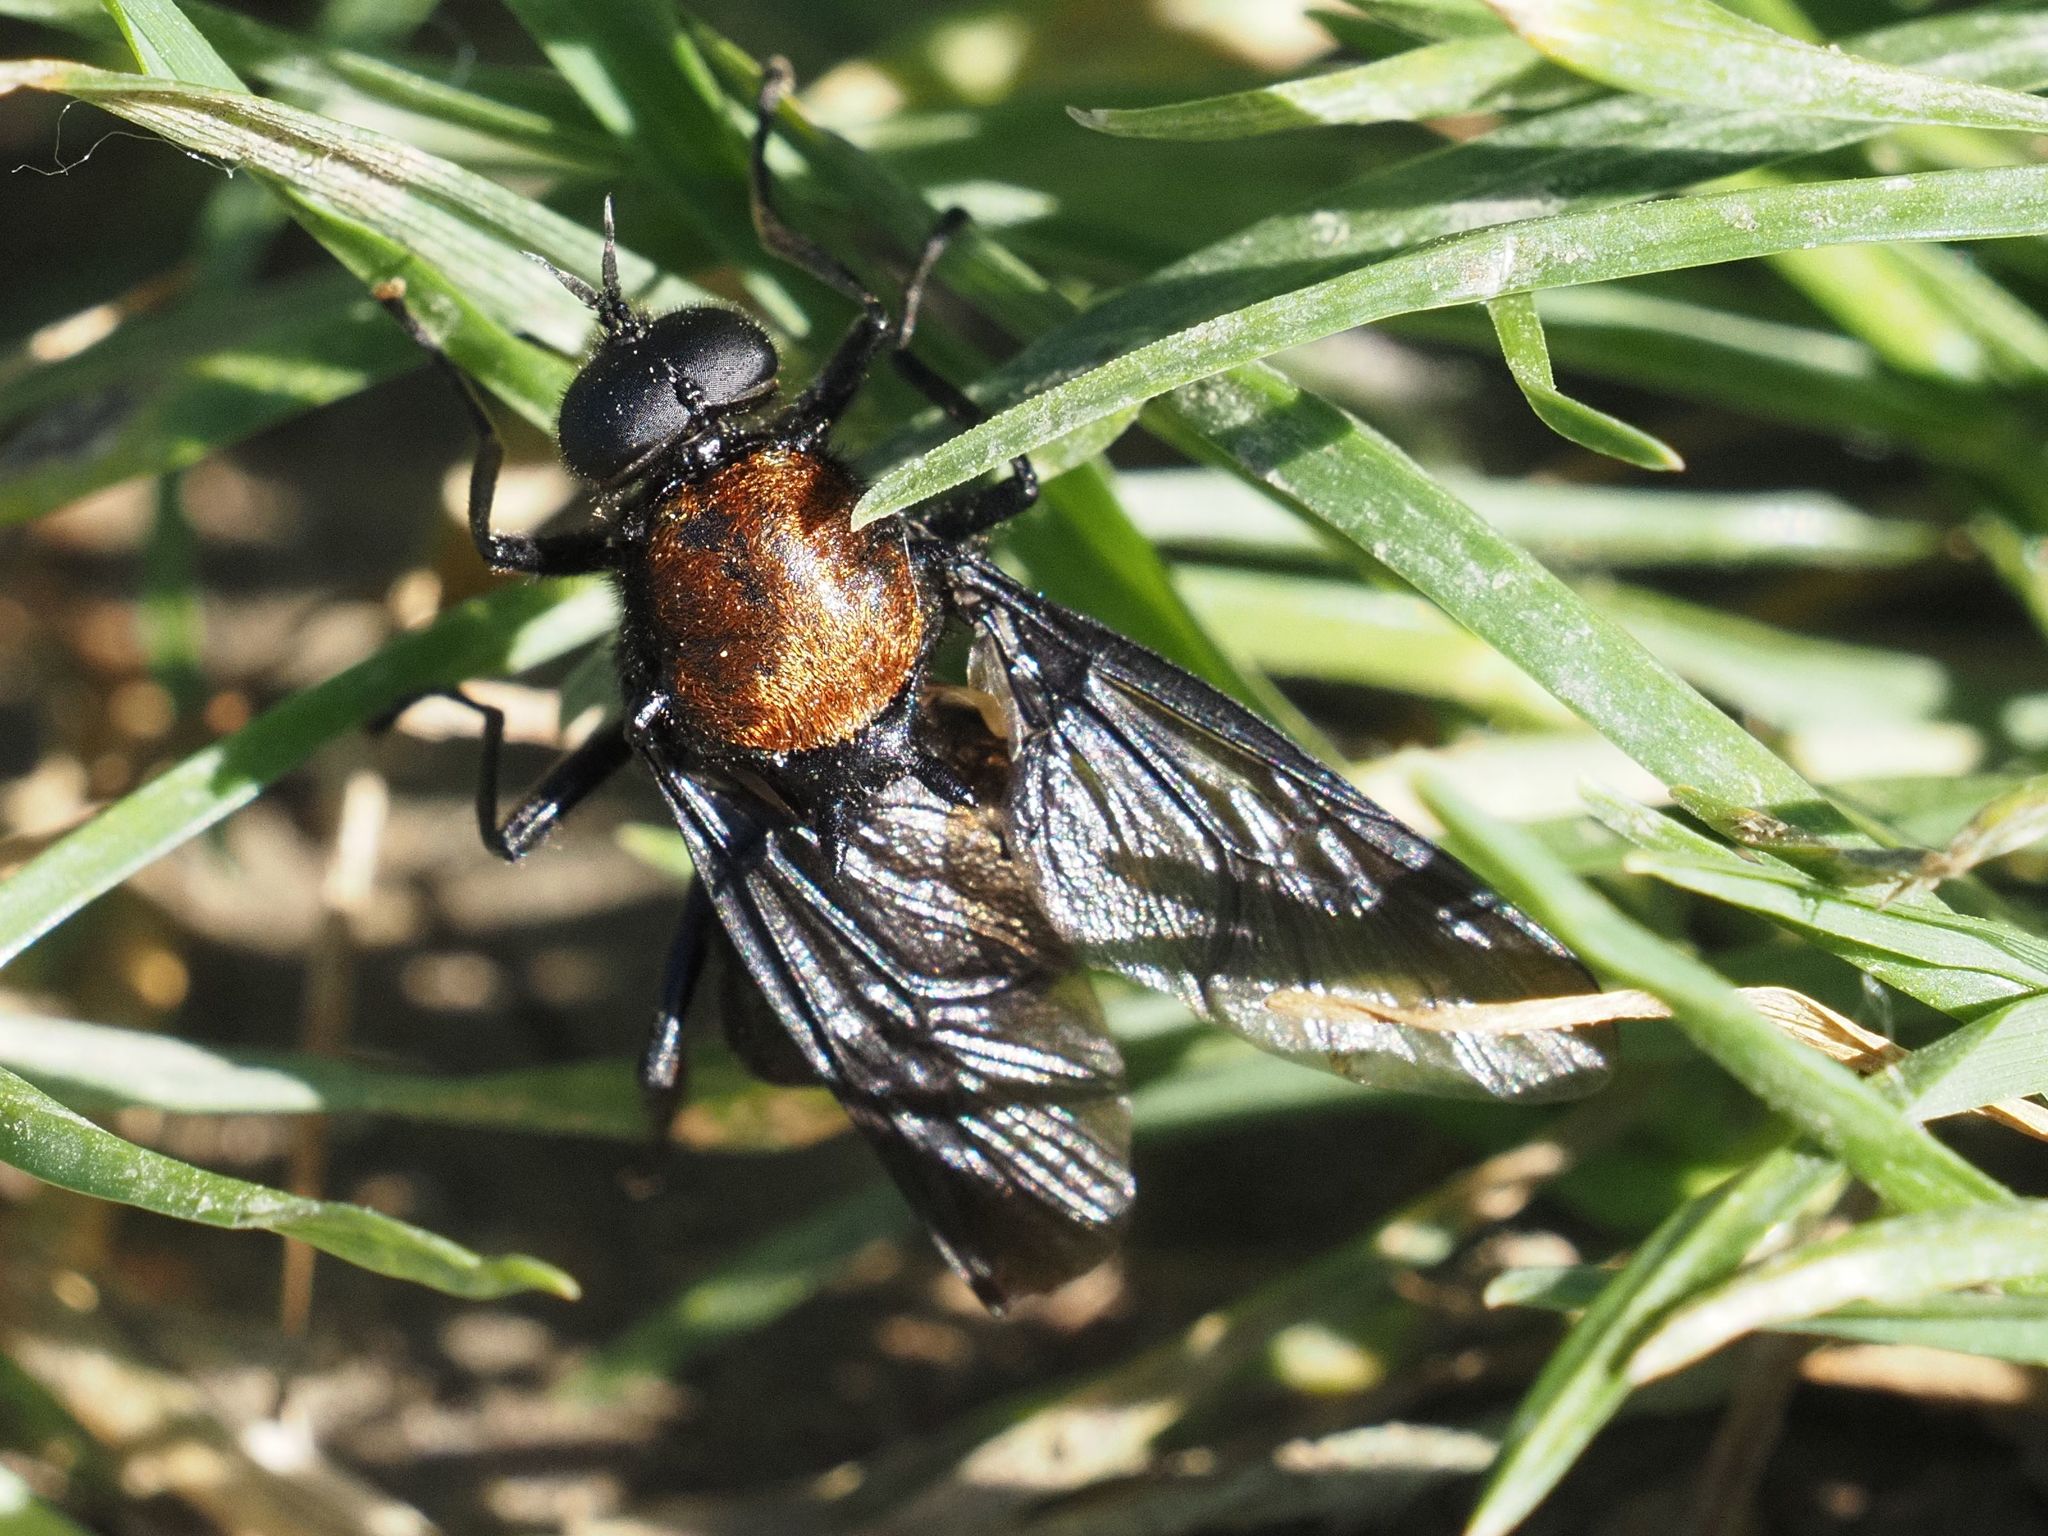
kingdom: Animalia
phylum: Arthropoda
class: Insecta
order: Diptera
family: Stratiomyidae
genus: Clitellaria
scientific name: Clitellaria ephippium
